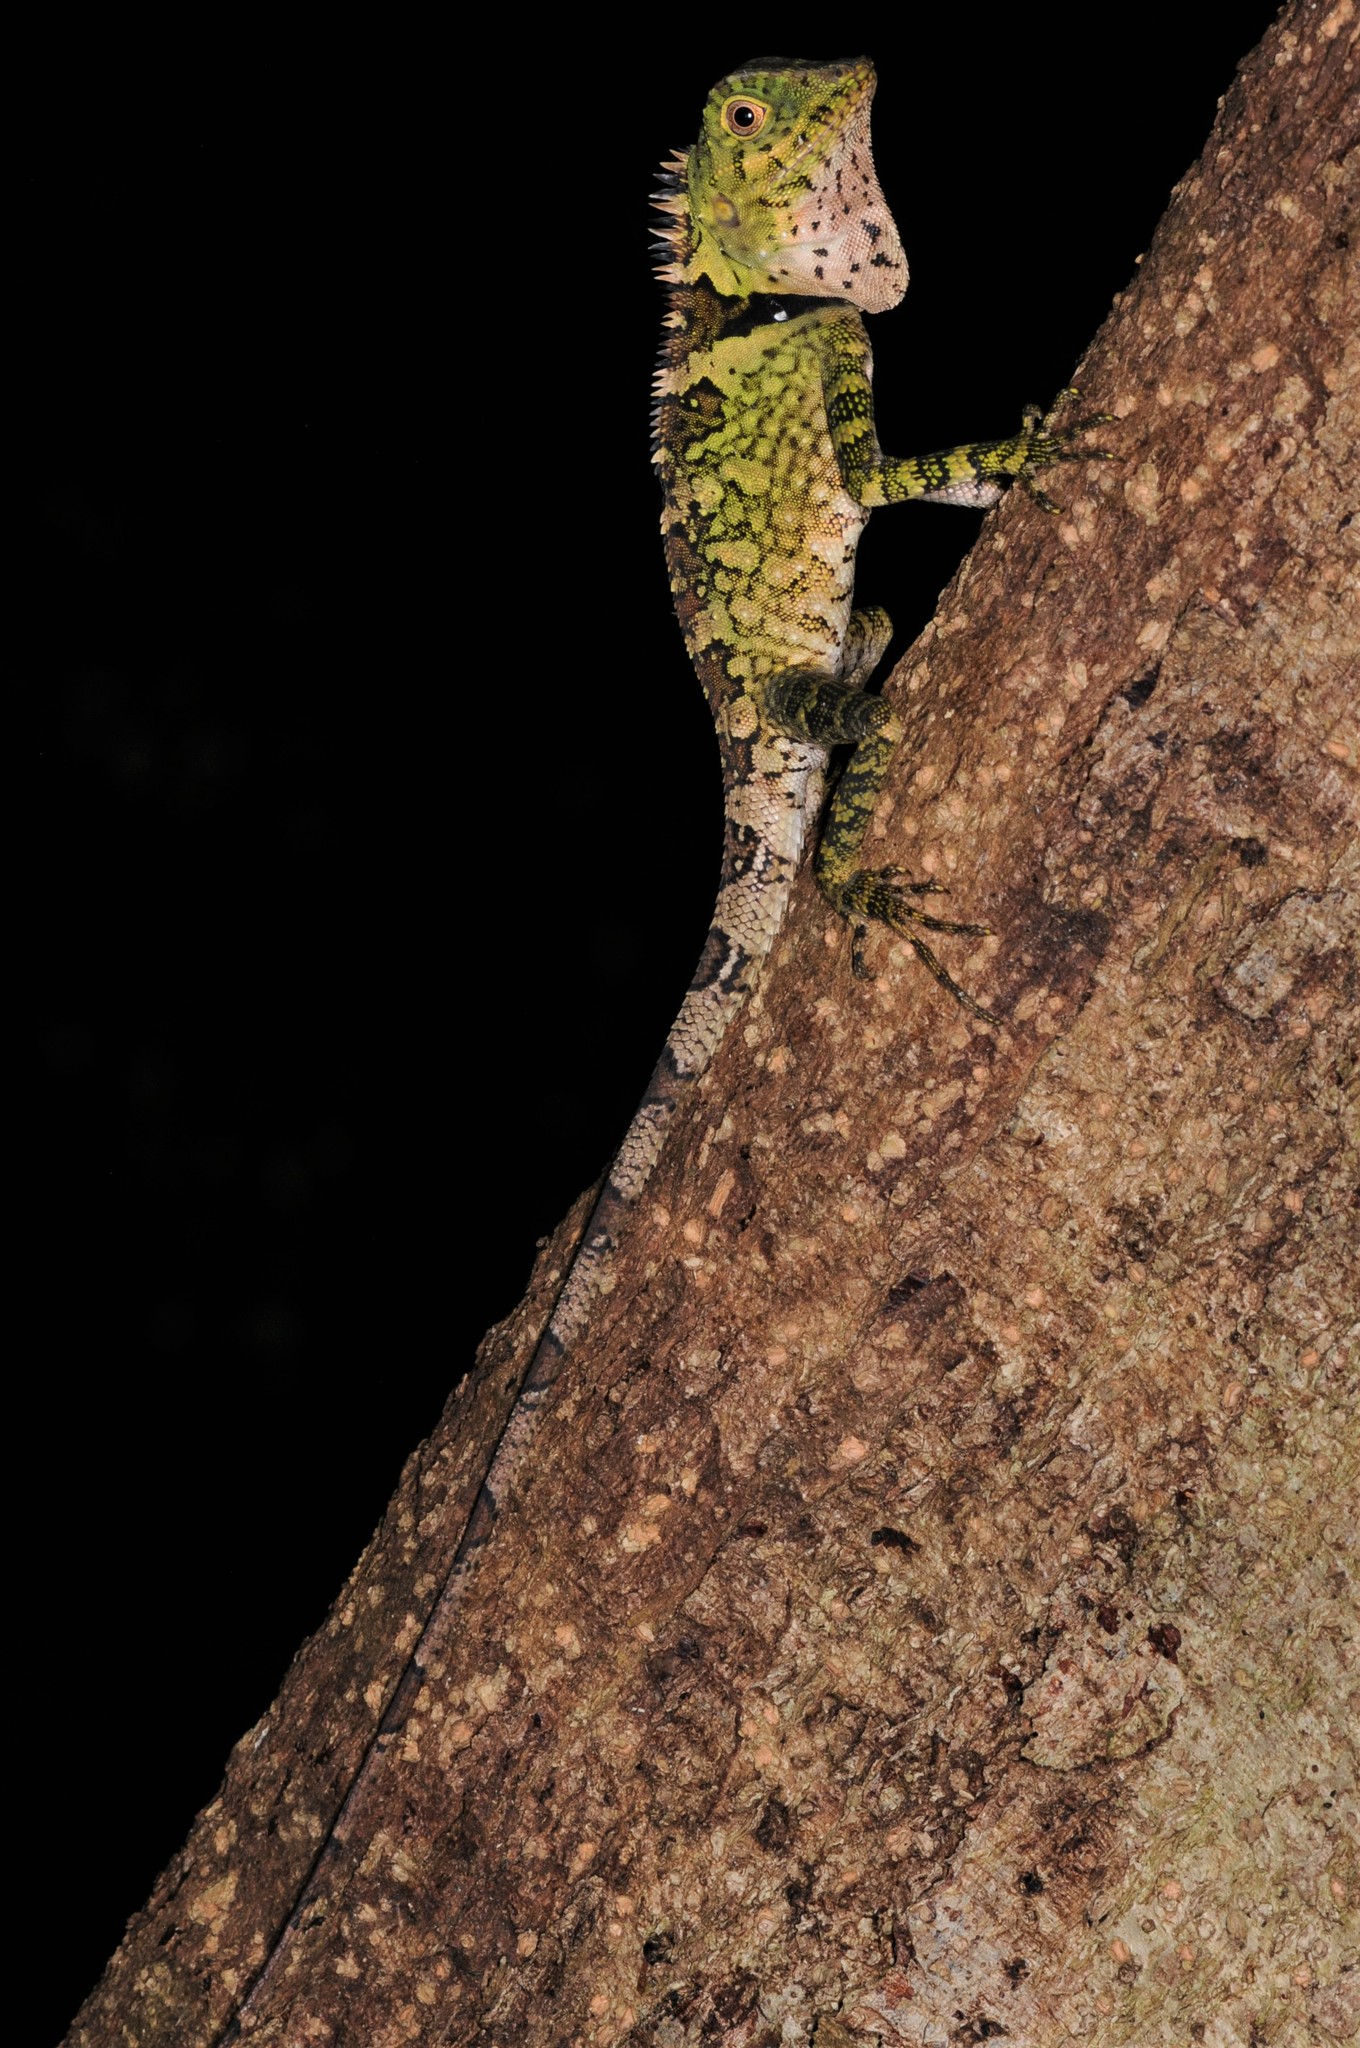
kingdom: Animalia
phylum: Chordata
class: Squamata
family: Agamidae
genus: Gonocephalus
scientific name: Gonocephalus liogaster
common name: Blue-eyed anglehead lizard
